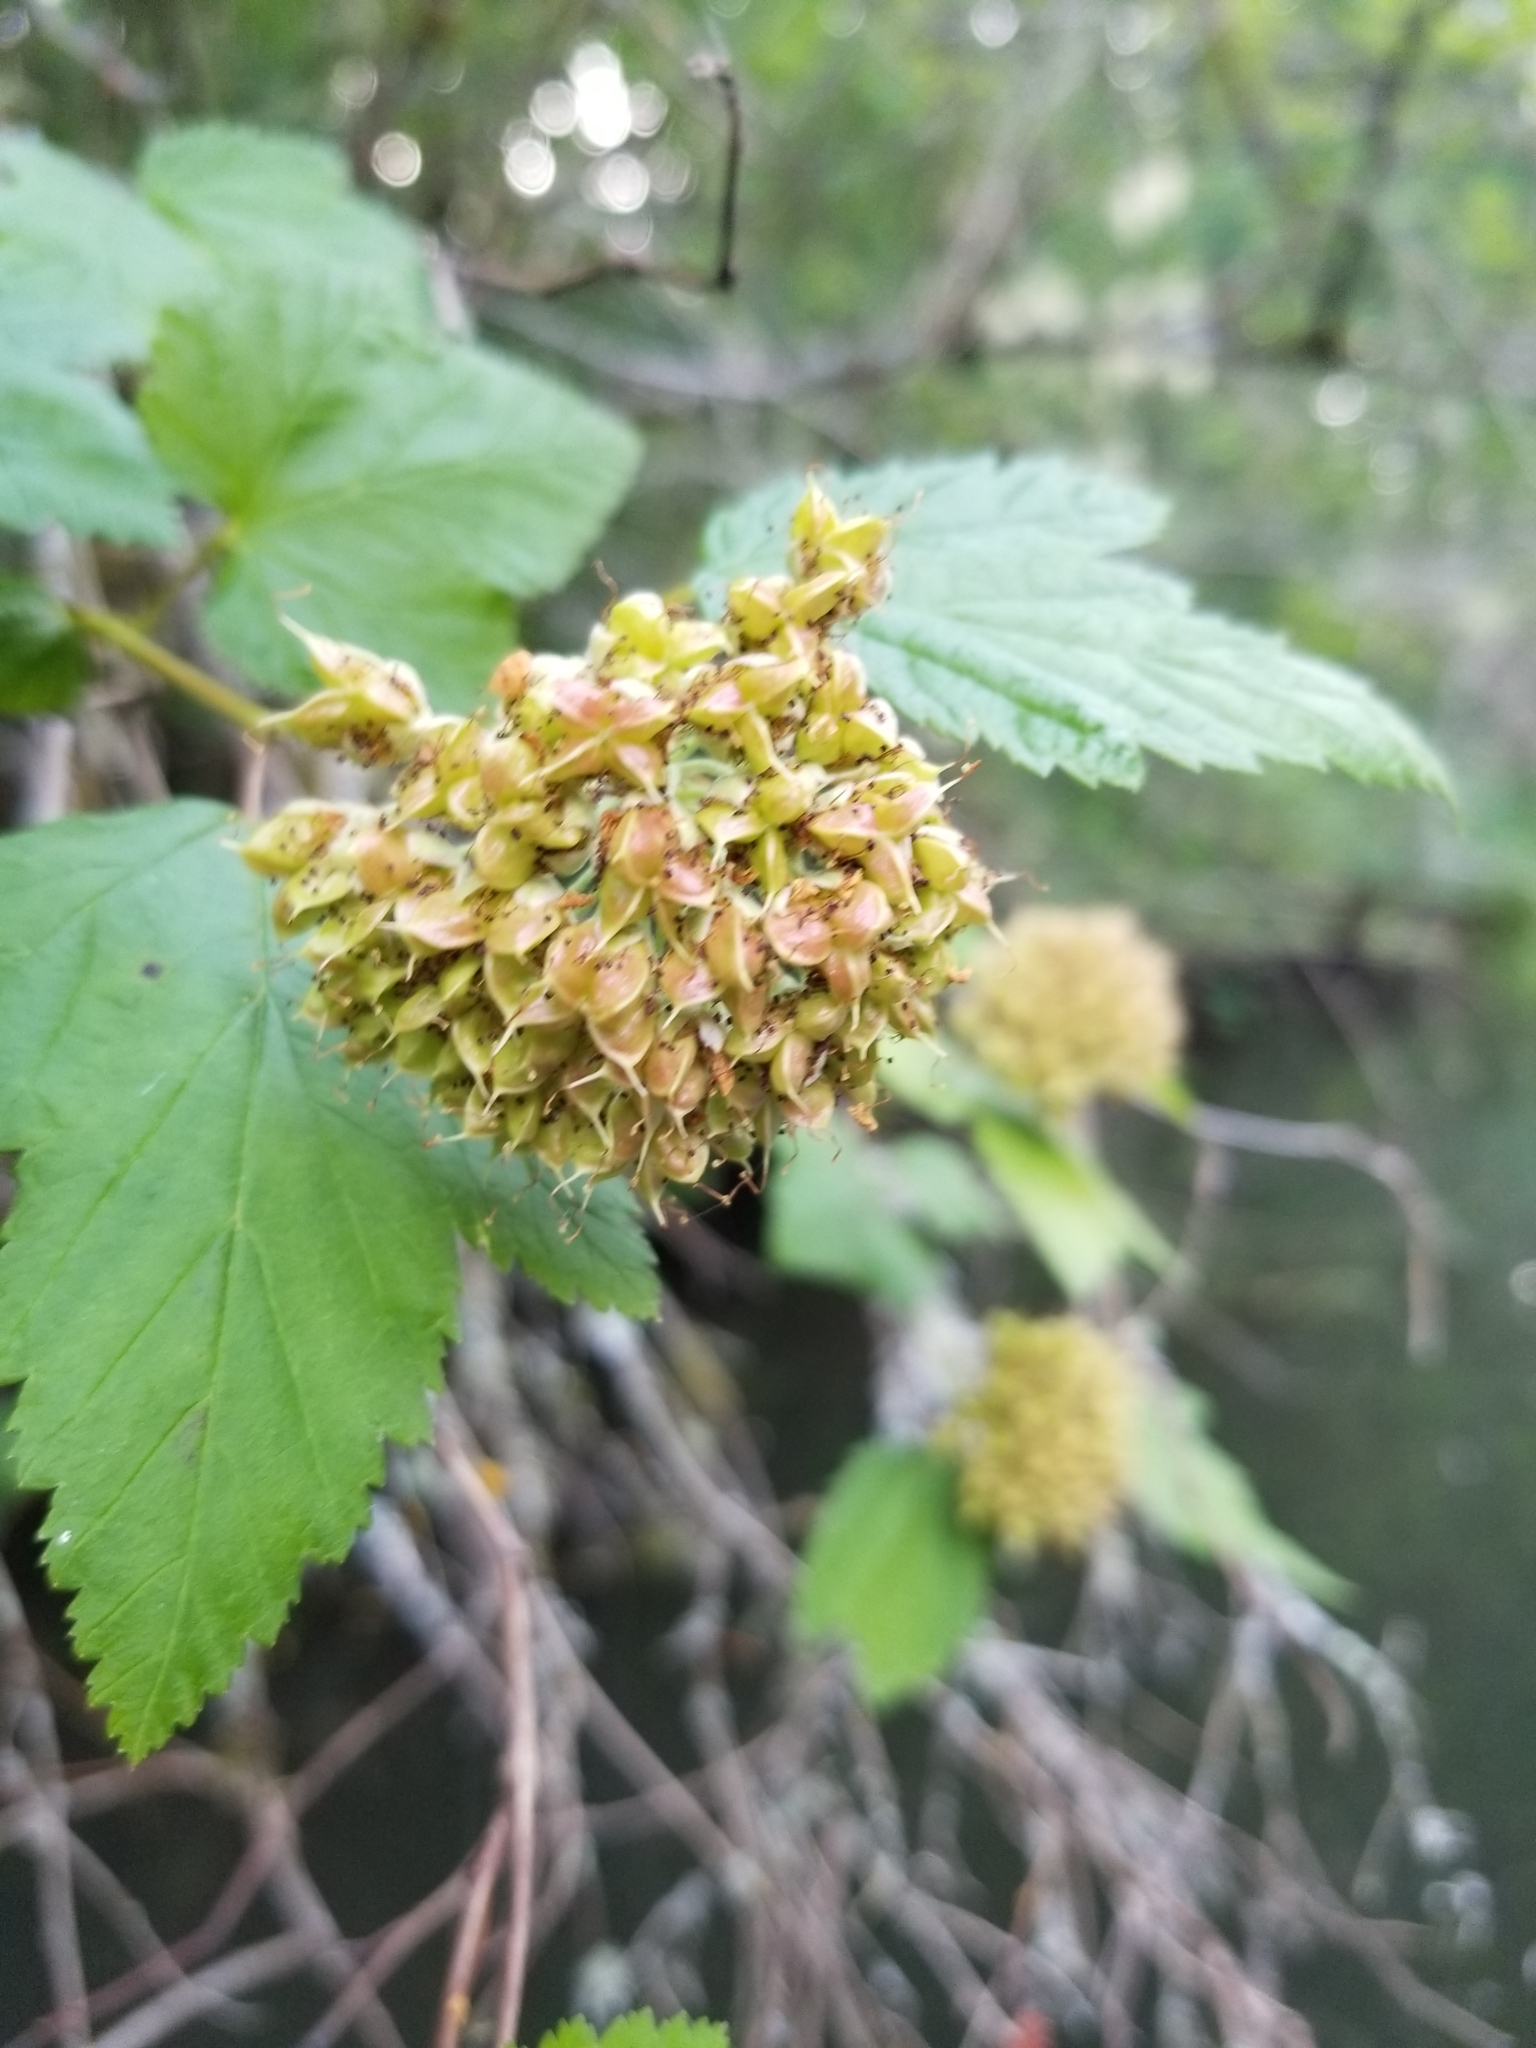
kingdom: Plantae
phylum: Tracheophyta
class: Magnoliopsida
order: Rosales
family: Rosaceae
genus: Physocarpus
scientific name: Physocarpus capitatus
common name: Pacific ninebark
